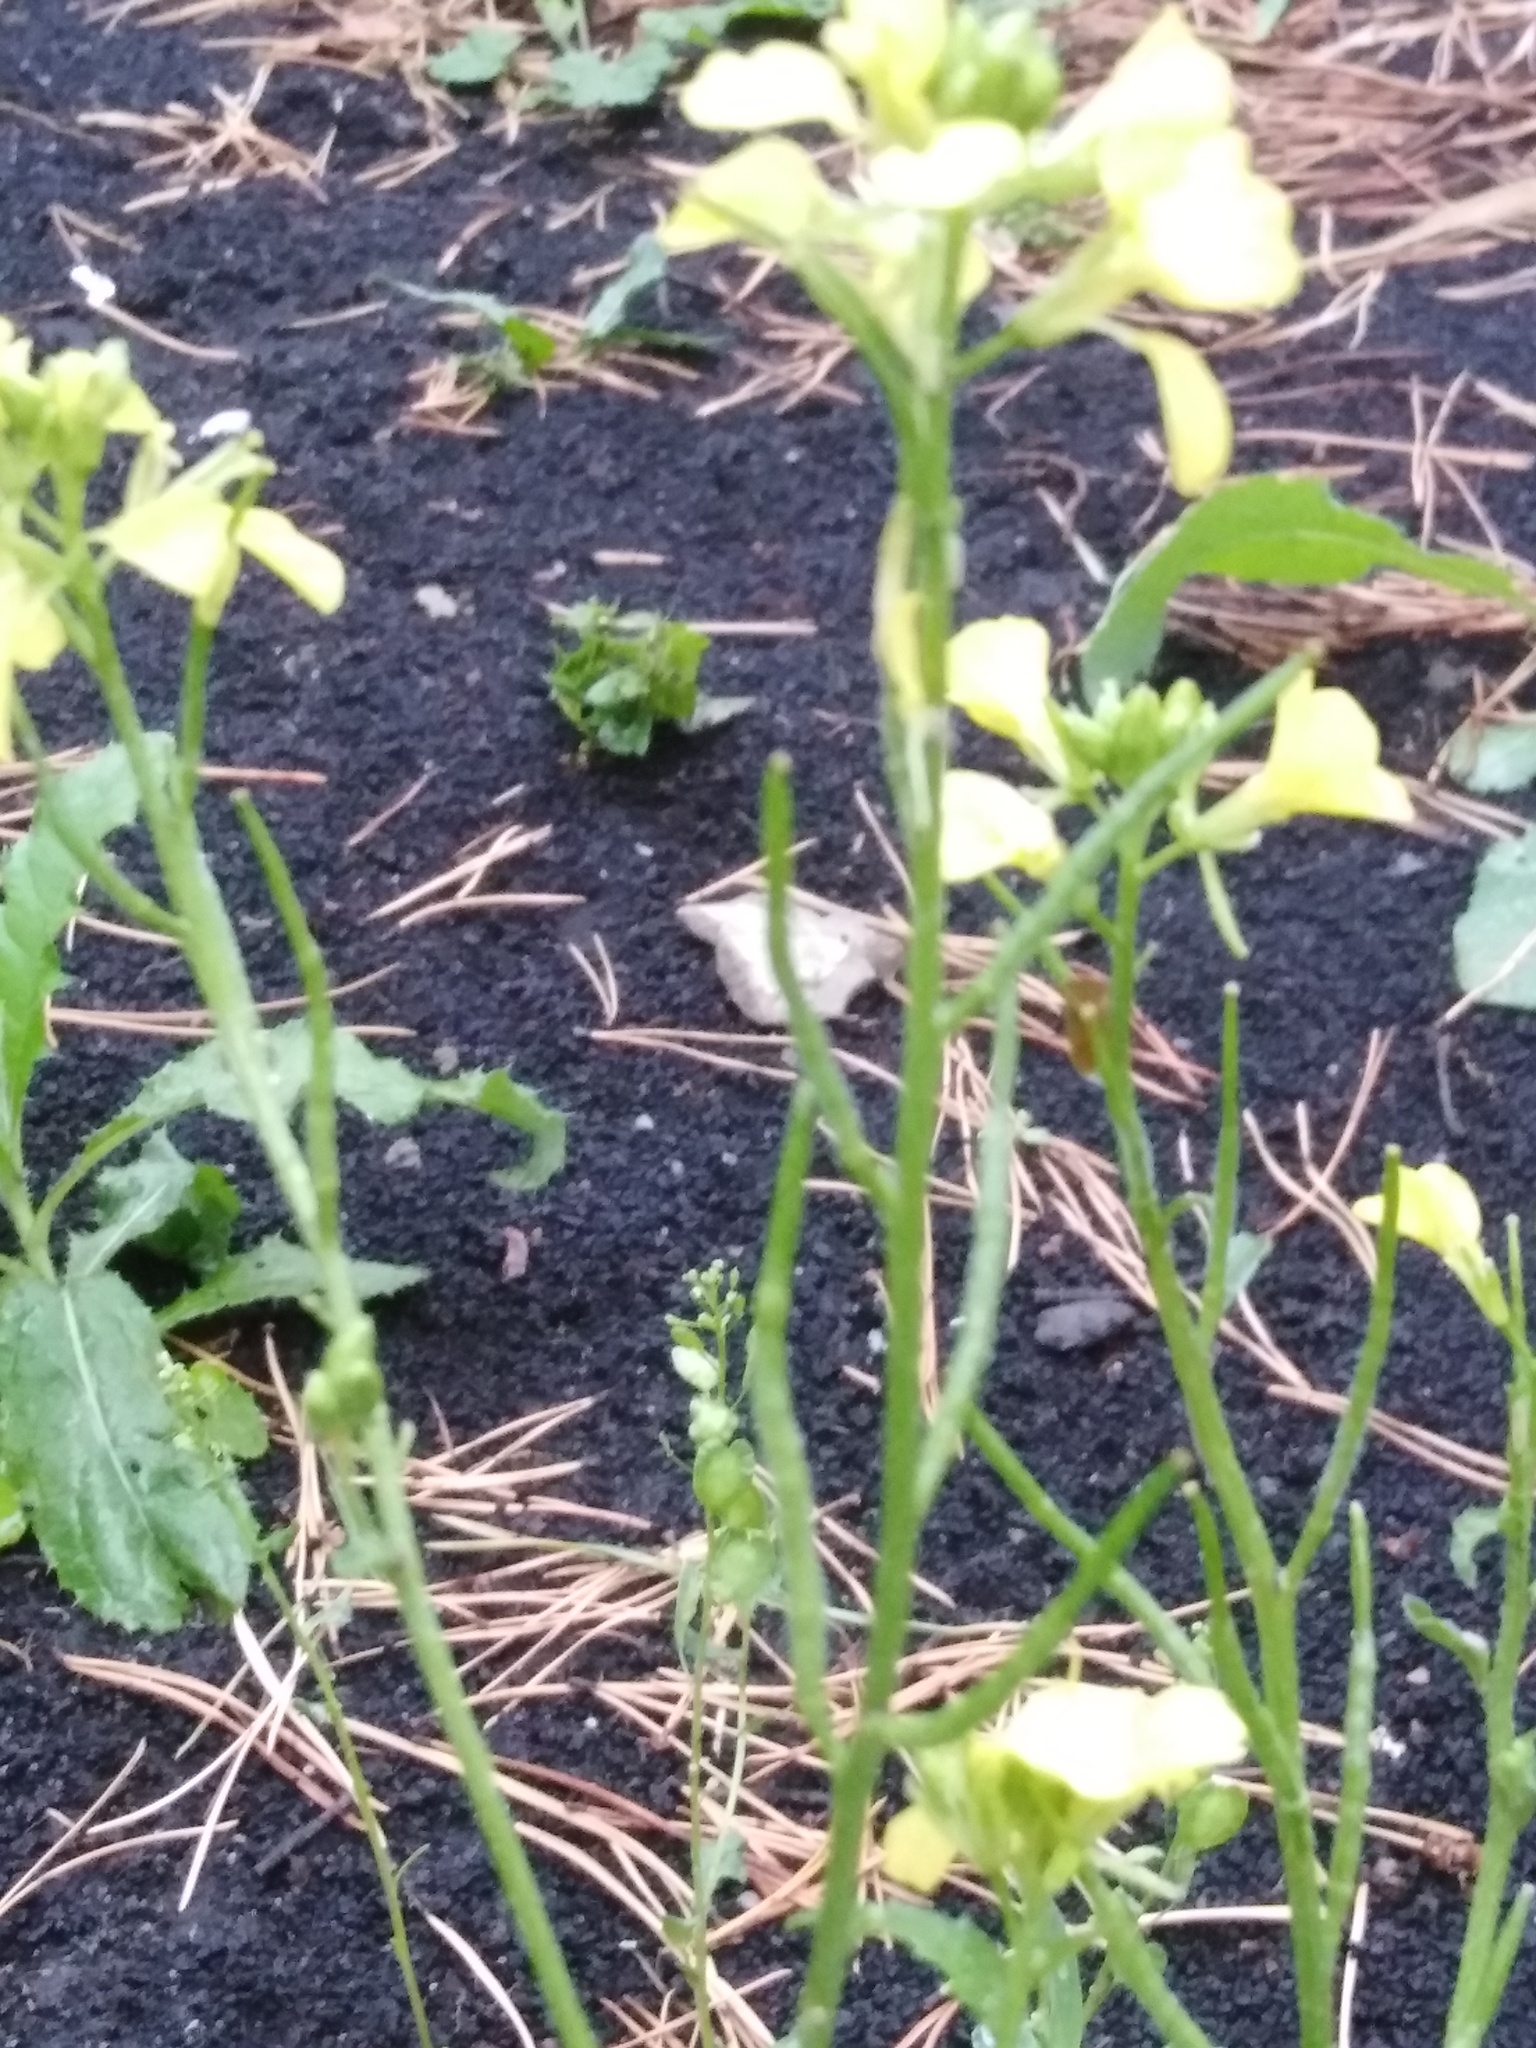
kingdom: Plantae
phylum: Tracheophyta
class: Magnoliopsida
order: Brassicales
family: Brassicaceae
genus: Raphanus
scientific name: Raphanus raphanistrum
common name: Wild radish
